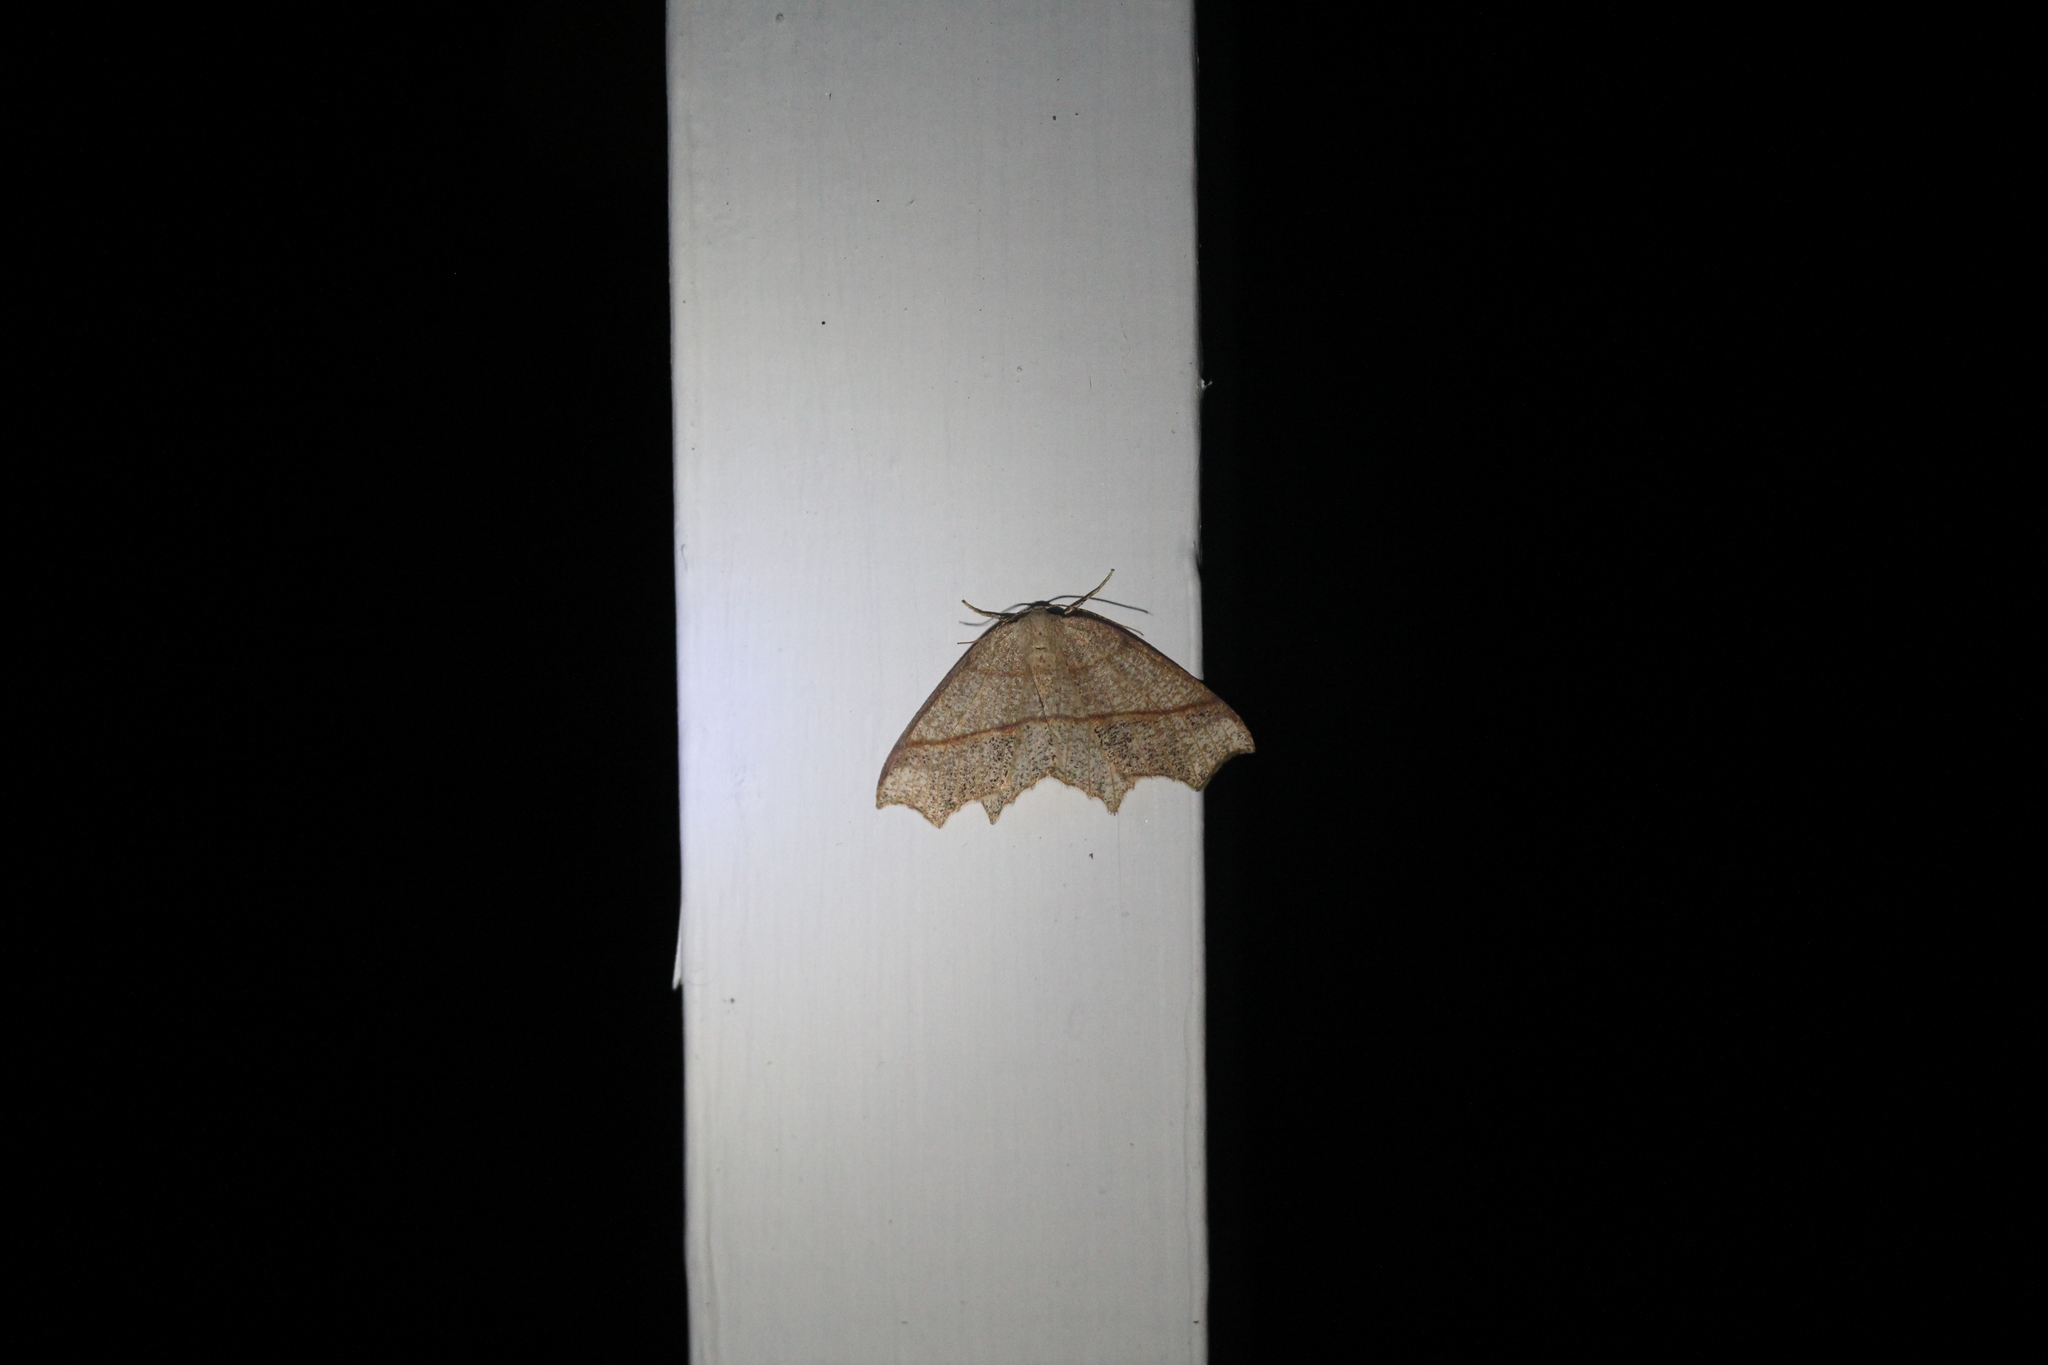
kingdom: Animalia
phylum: Arthropoda
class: Insecta
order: Lepidoptera
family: Geometridae
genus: Besma
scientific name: Besma quercivoraria
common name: Oak besma
